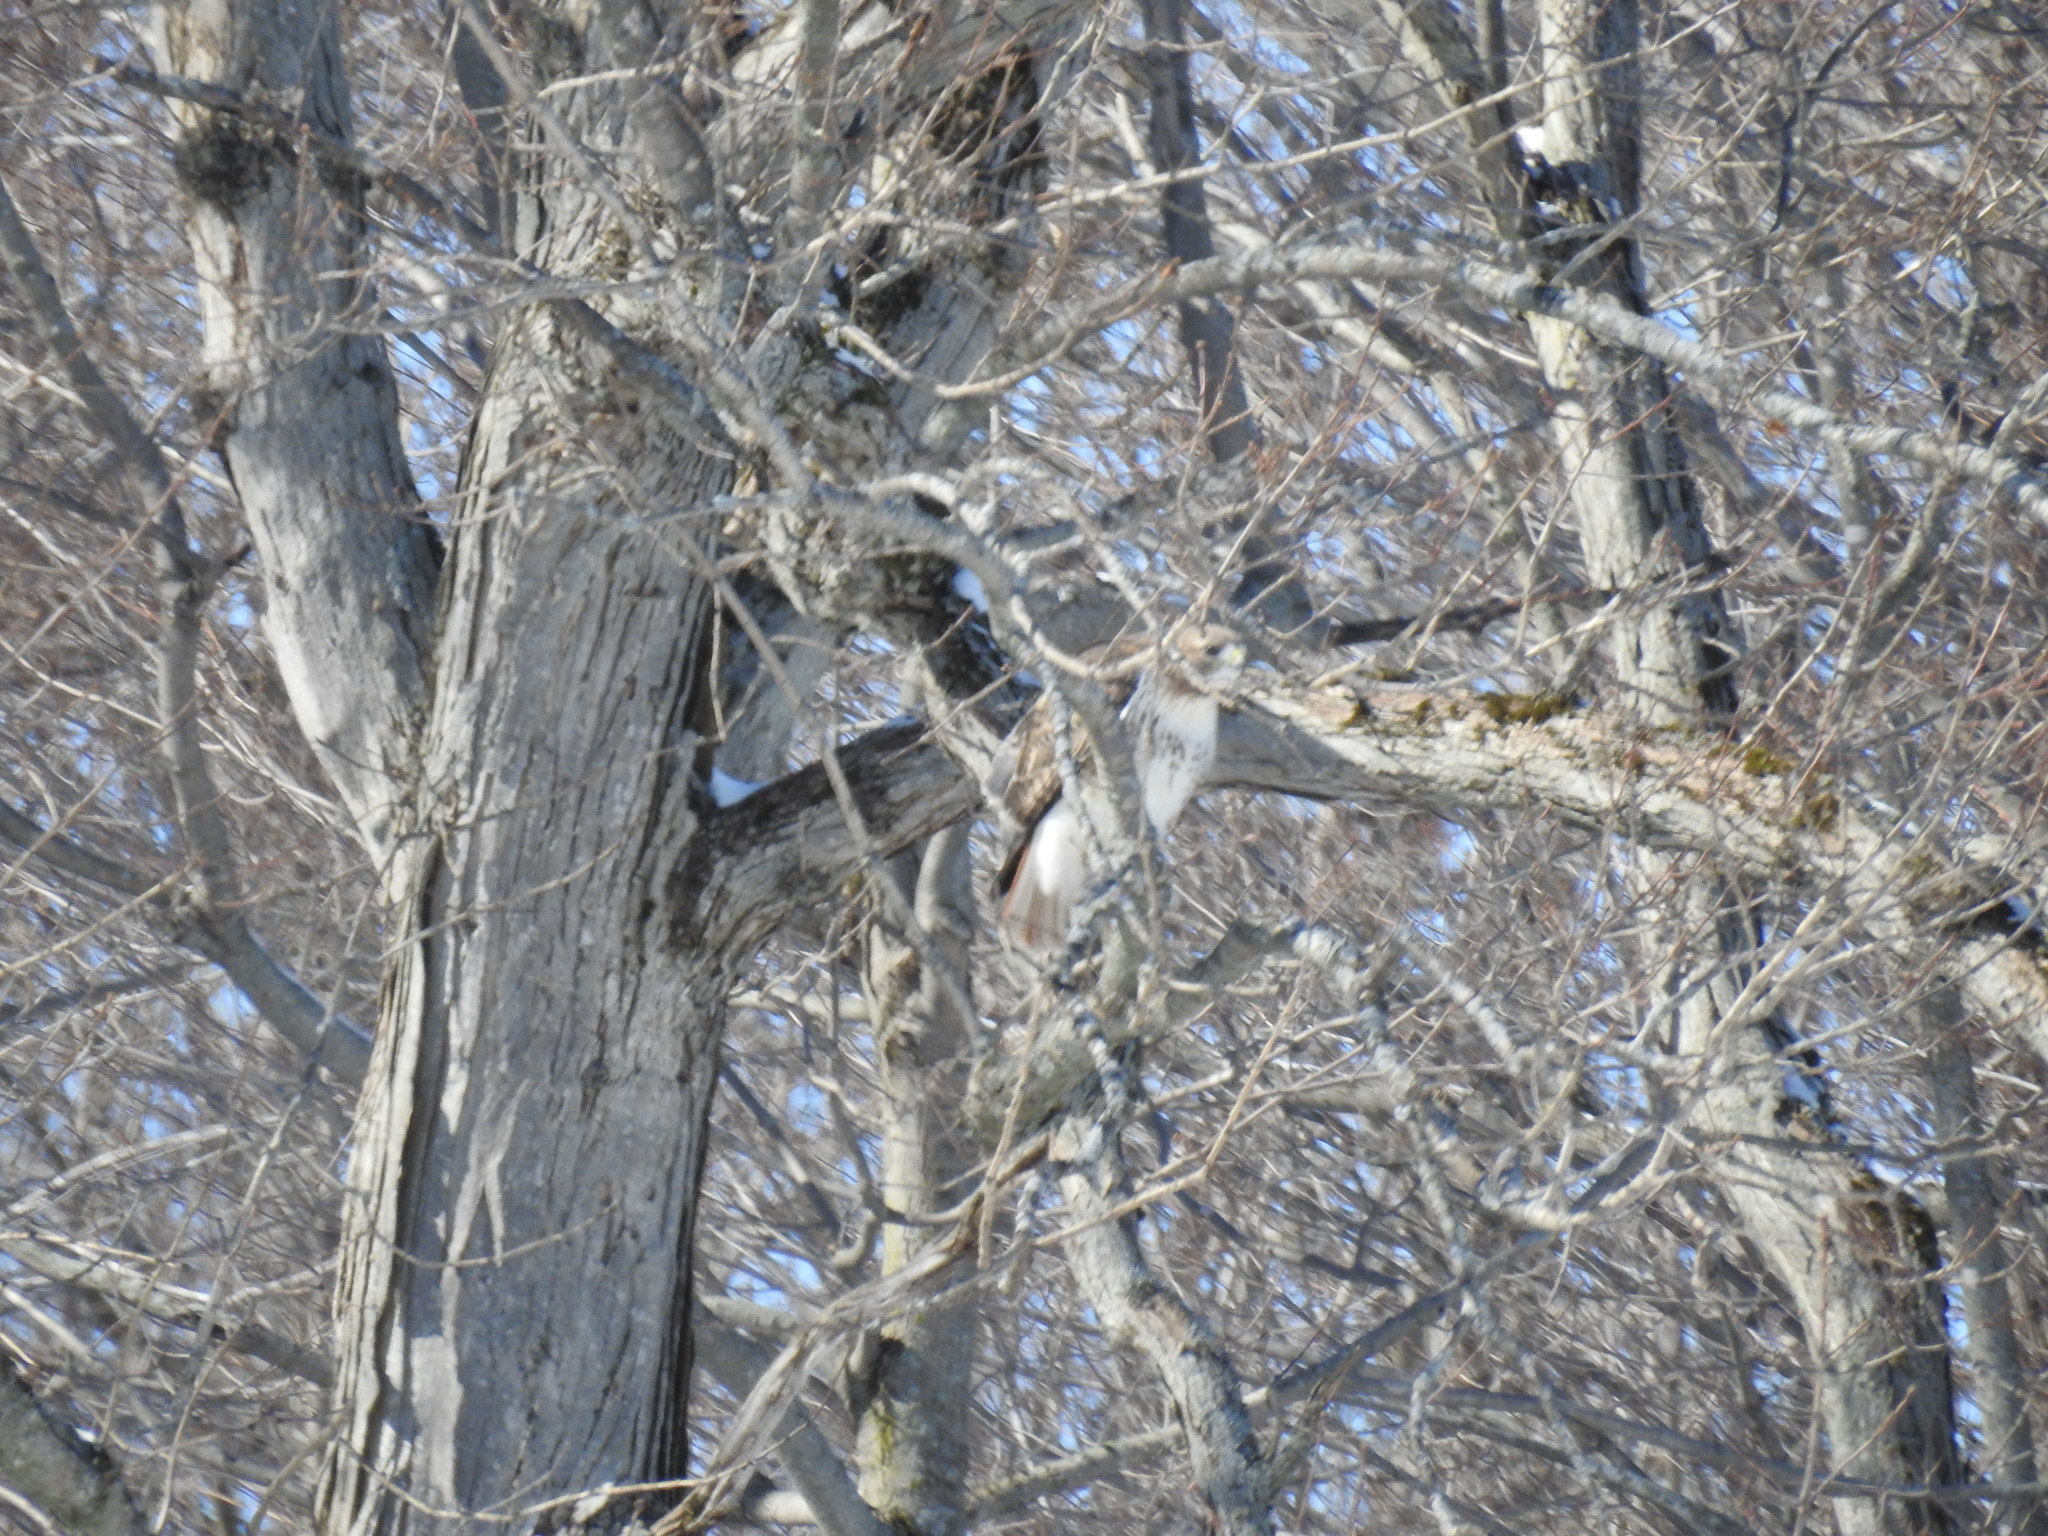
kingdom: Animalia
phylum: Chordata
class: Aves
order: Accipitriformes
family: Accipitridae
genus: Buteo
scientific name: Buteo jamaicensis
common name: Red-tailed hawk
